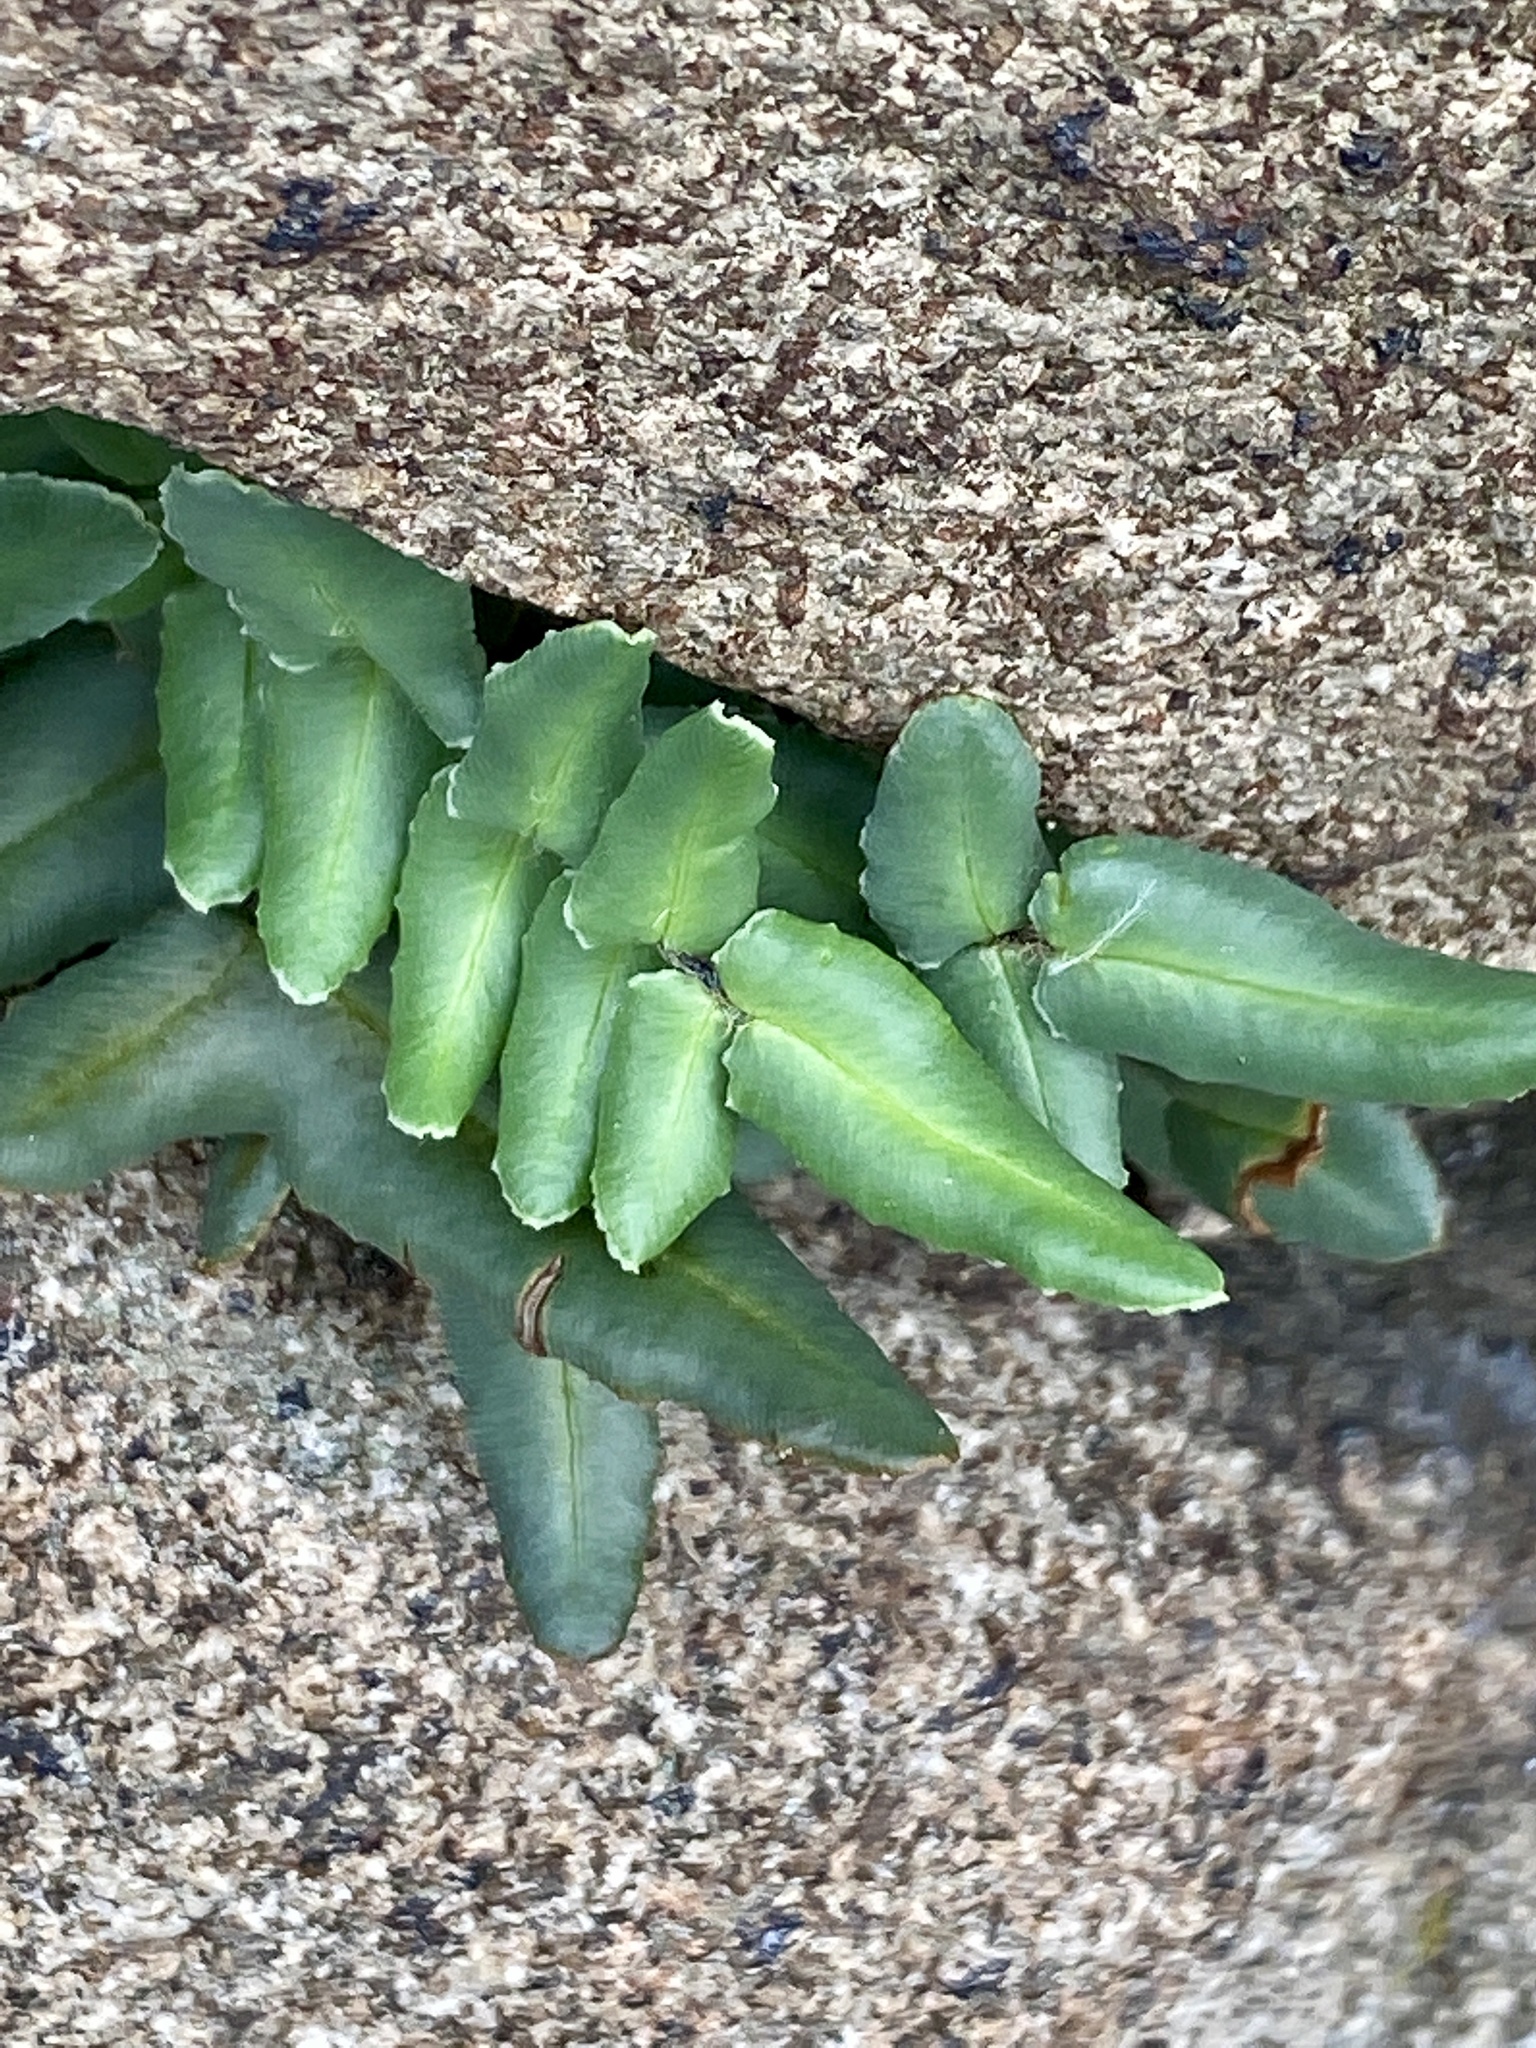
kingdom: Plantae
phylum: Tracheophyta
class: Polypodiopsida
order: Polypodiales
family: Pteridaceae
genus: Pellaea
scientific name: Pellaea atropurpurea
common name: Hairy cliffbrake
